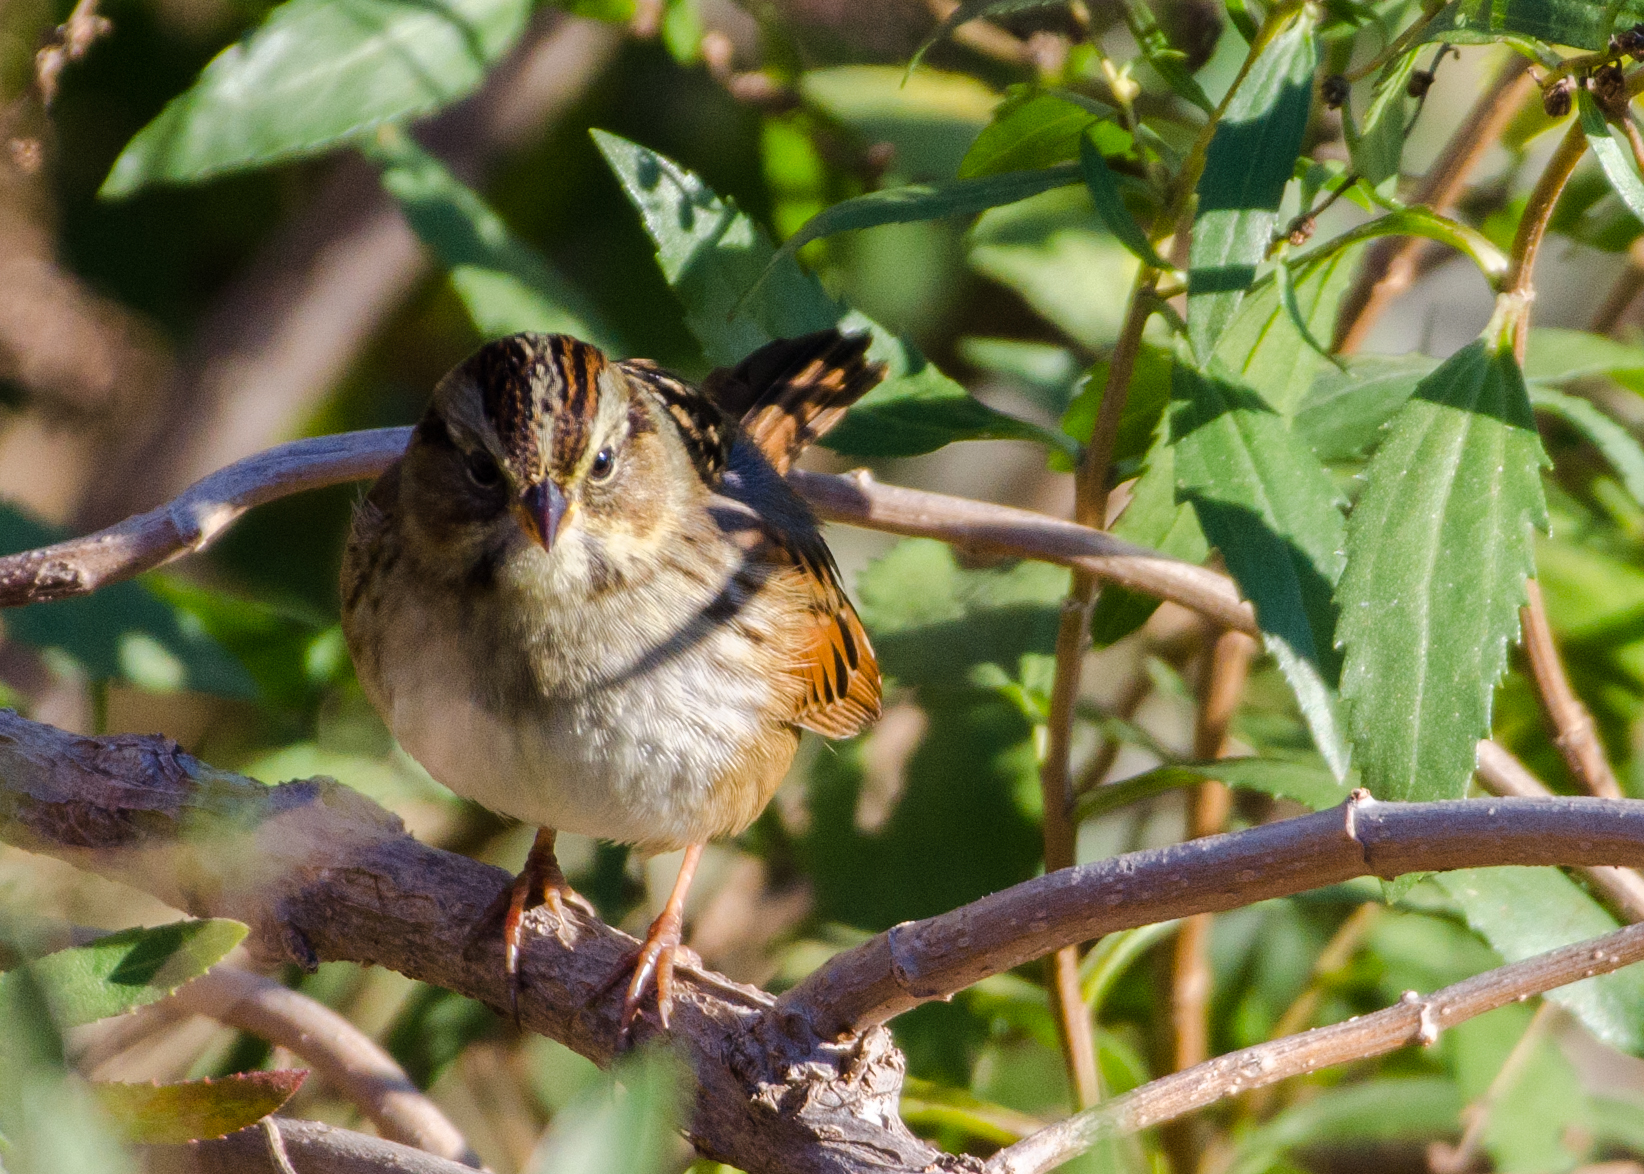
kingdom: Animalia
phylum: Chordata
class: Aves
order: Passeriformes
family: Passerellidae
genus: Melospiza
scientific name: Melospiza georgiana
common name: Swamp sparrow
